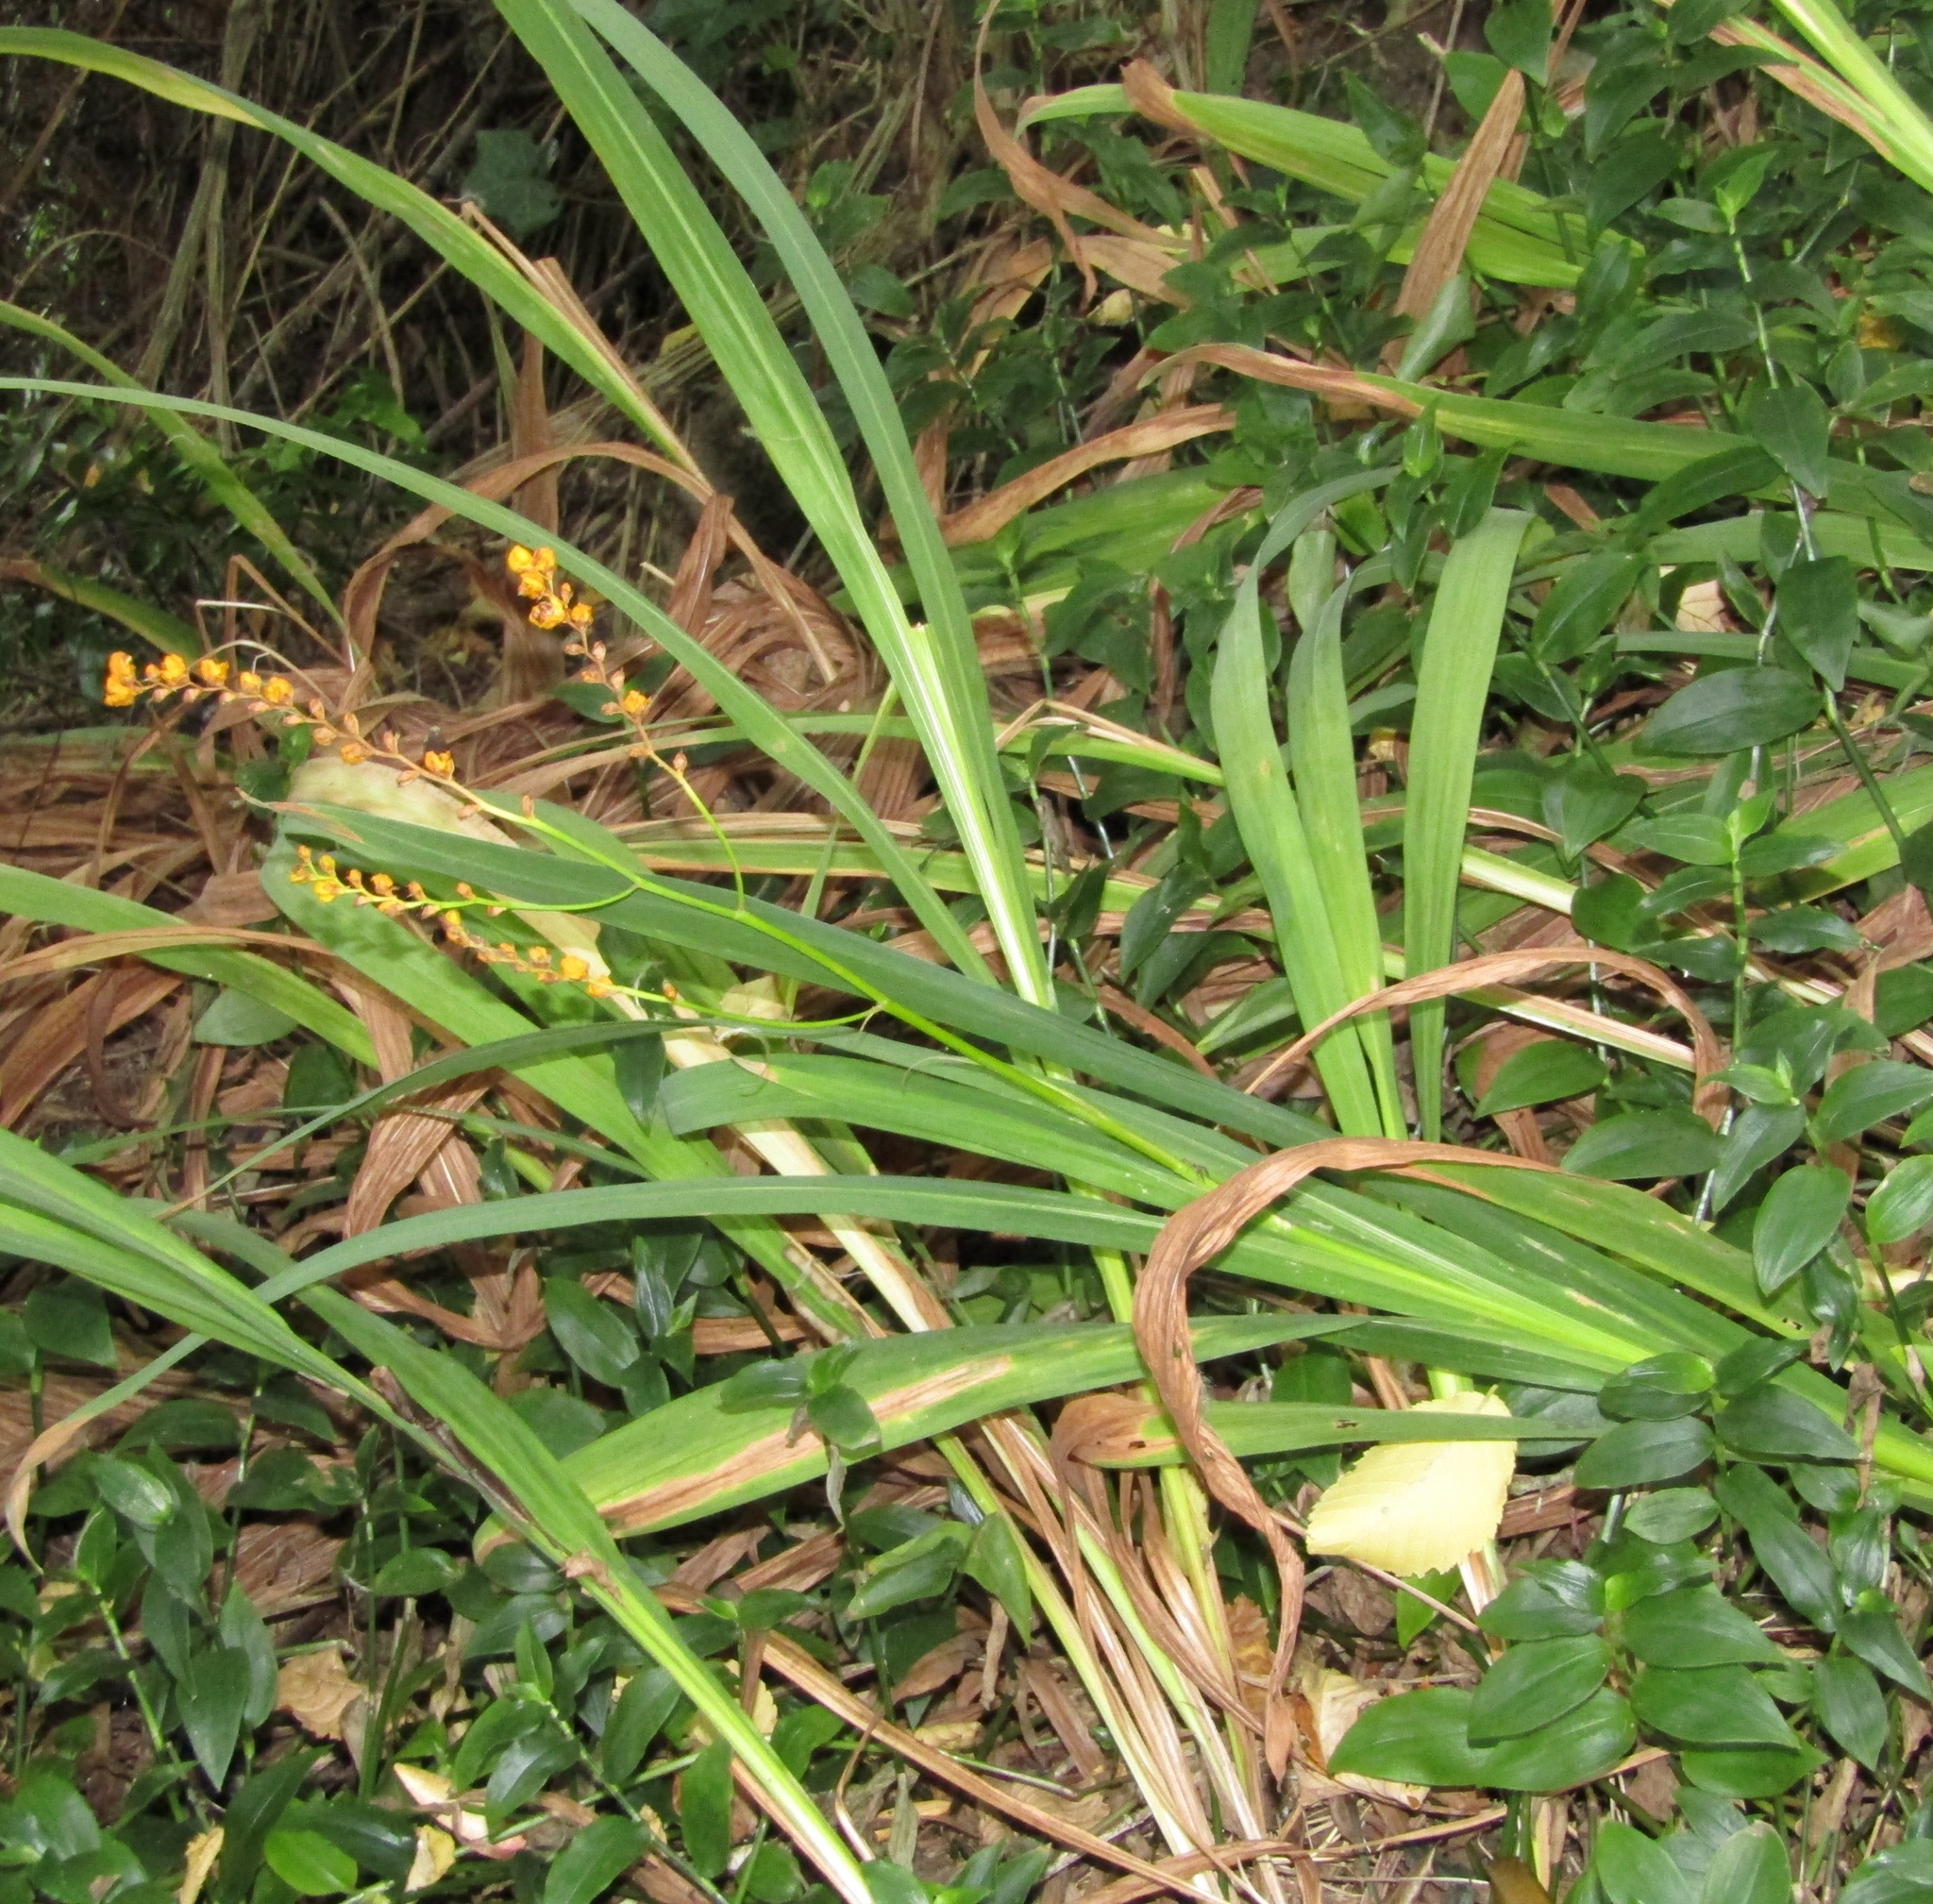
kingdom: Plantae
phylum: Tracheophyta
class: Liliopsida
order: Asparagales
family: Iridaceae
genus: Crocosmia
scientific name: Crocosmia crocosmiiflora
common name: Montbretia
